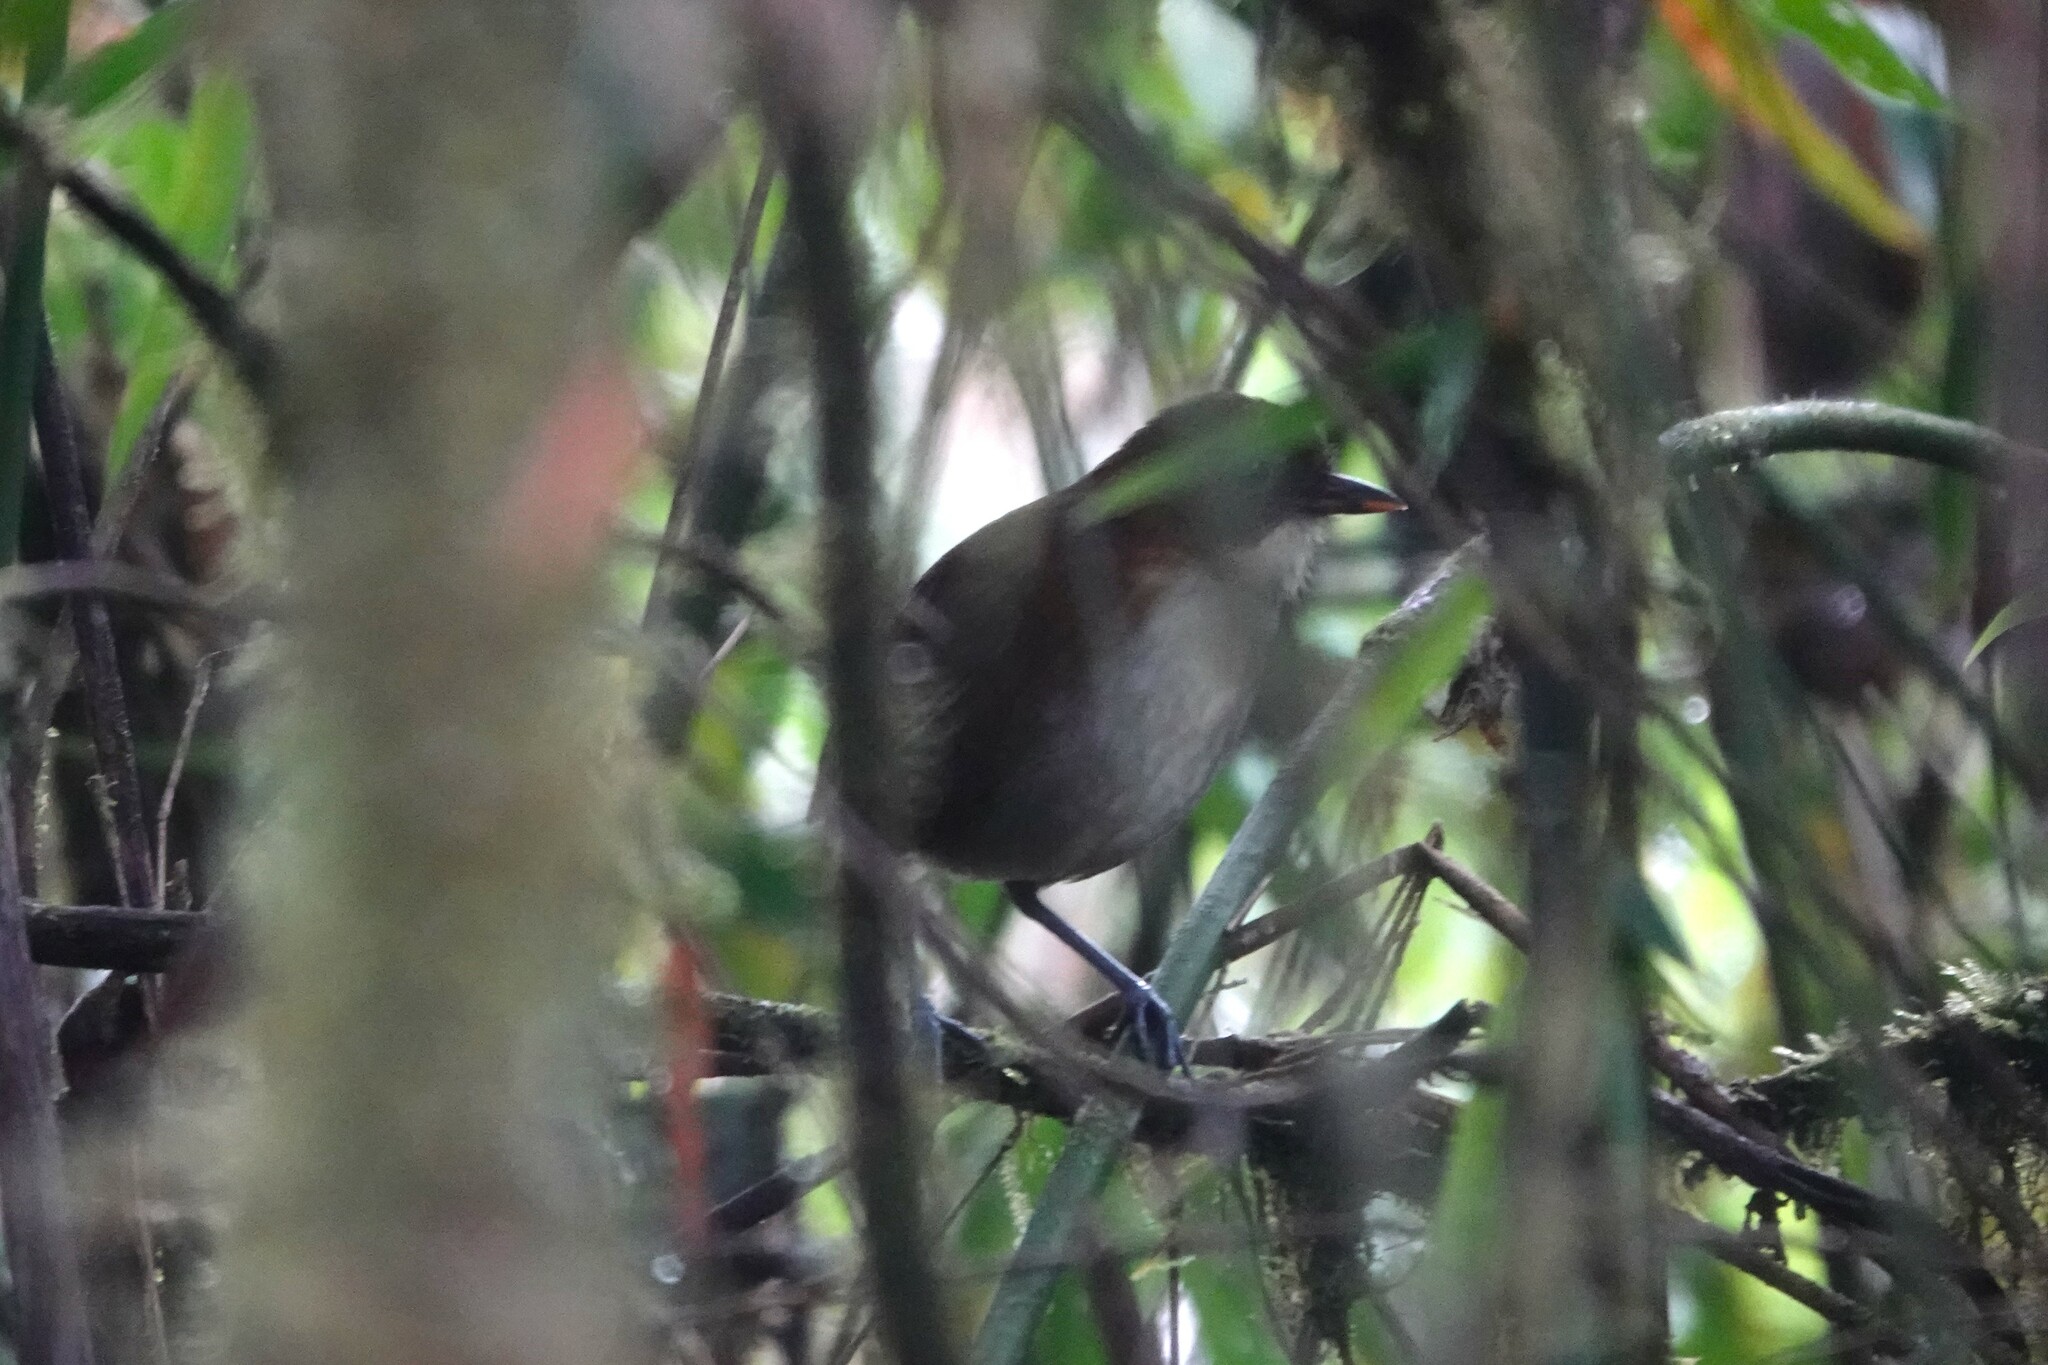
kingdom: Animalia
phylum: Chordata
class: Aves
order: Passeriformes
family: Grallariidae
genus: Grallaria
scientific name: Grallaria flavotincta
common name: Yellow-breasted antpitta
